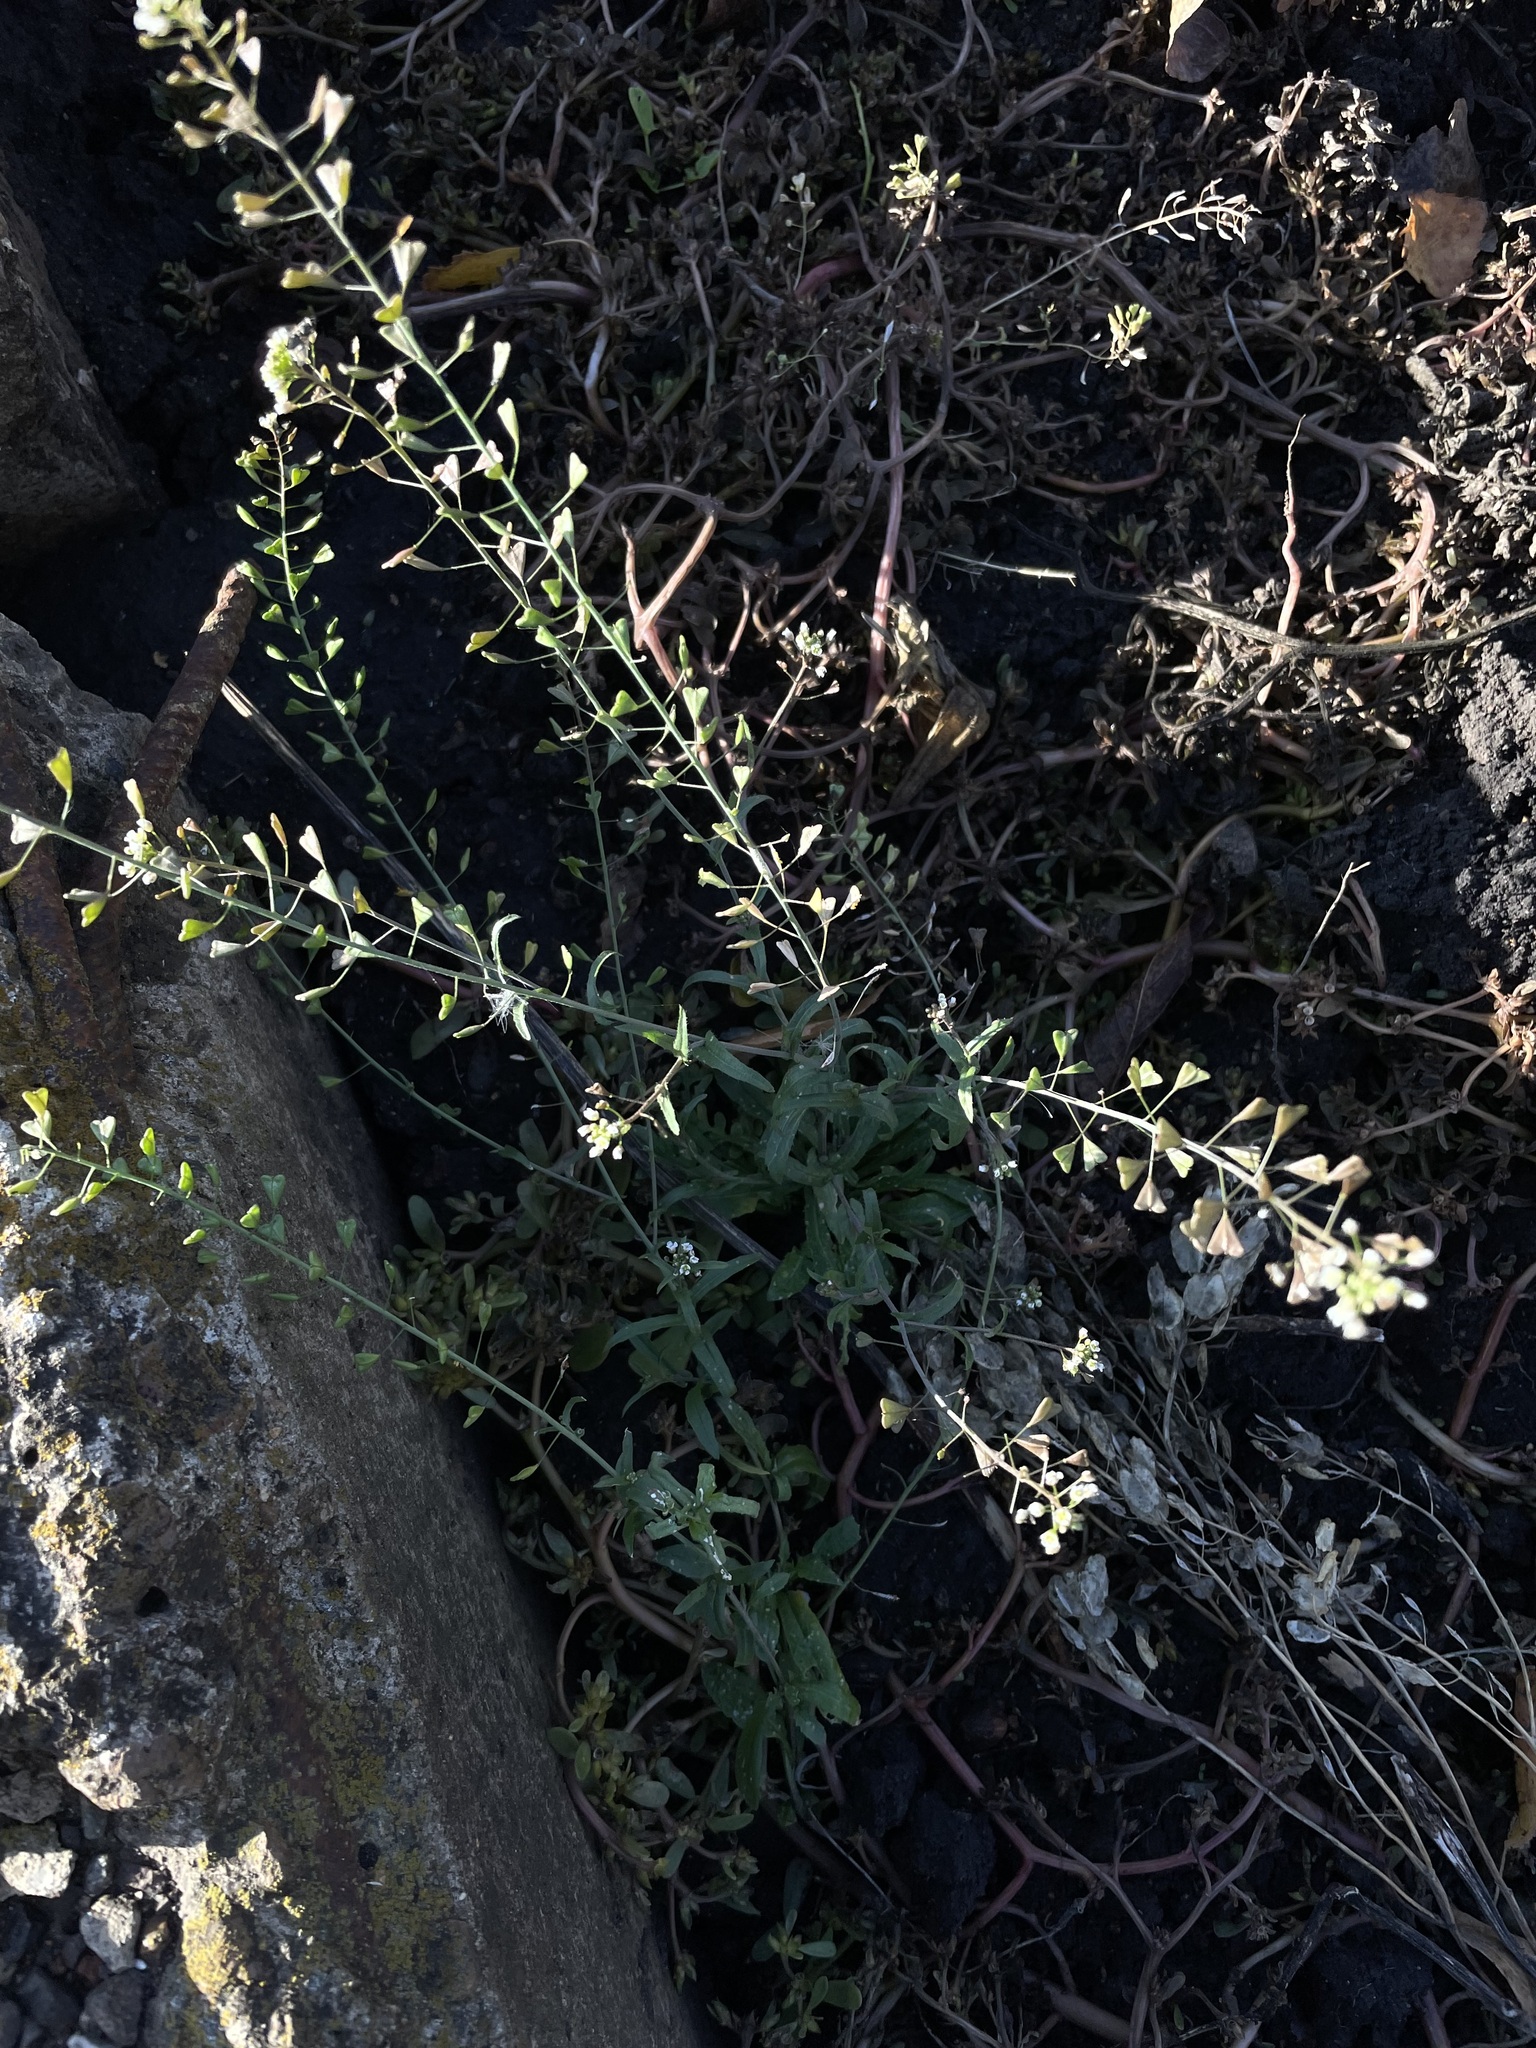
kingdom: Plantae
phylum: Tracheophyta
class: Magnoliopsida
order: Brassicales
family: Brassicaceae
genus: Capsella
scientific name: Capsella bursa-pastoris
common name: Shepherd's purse
